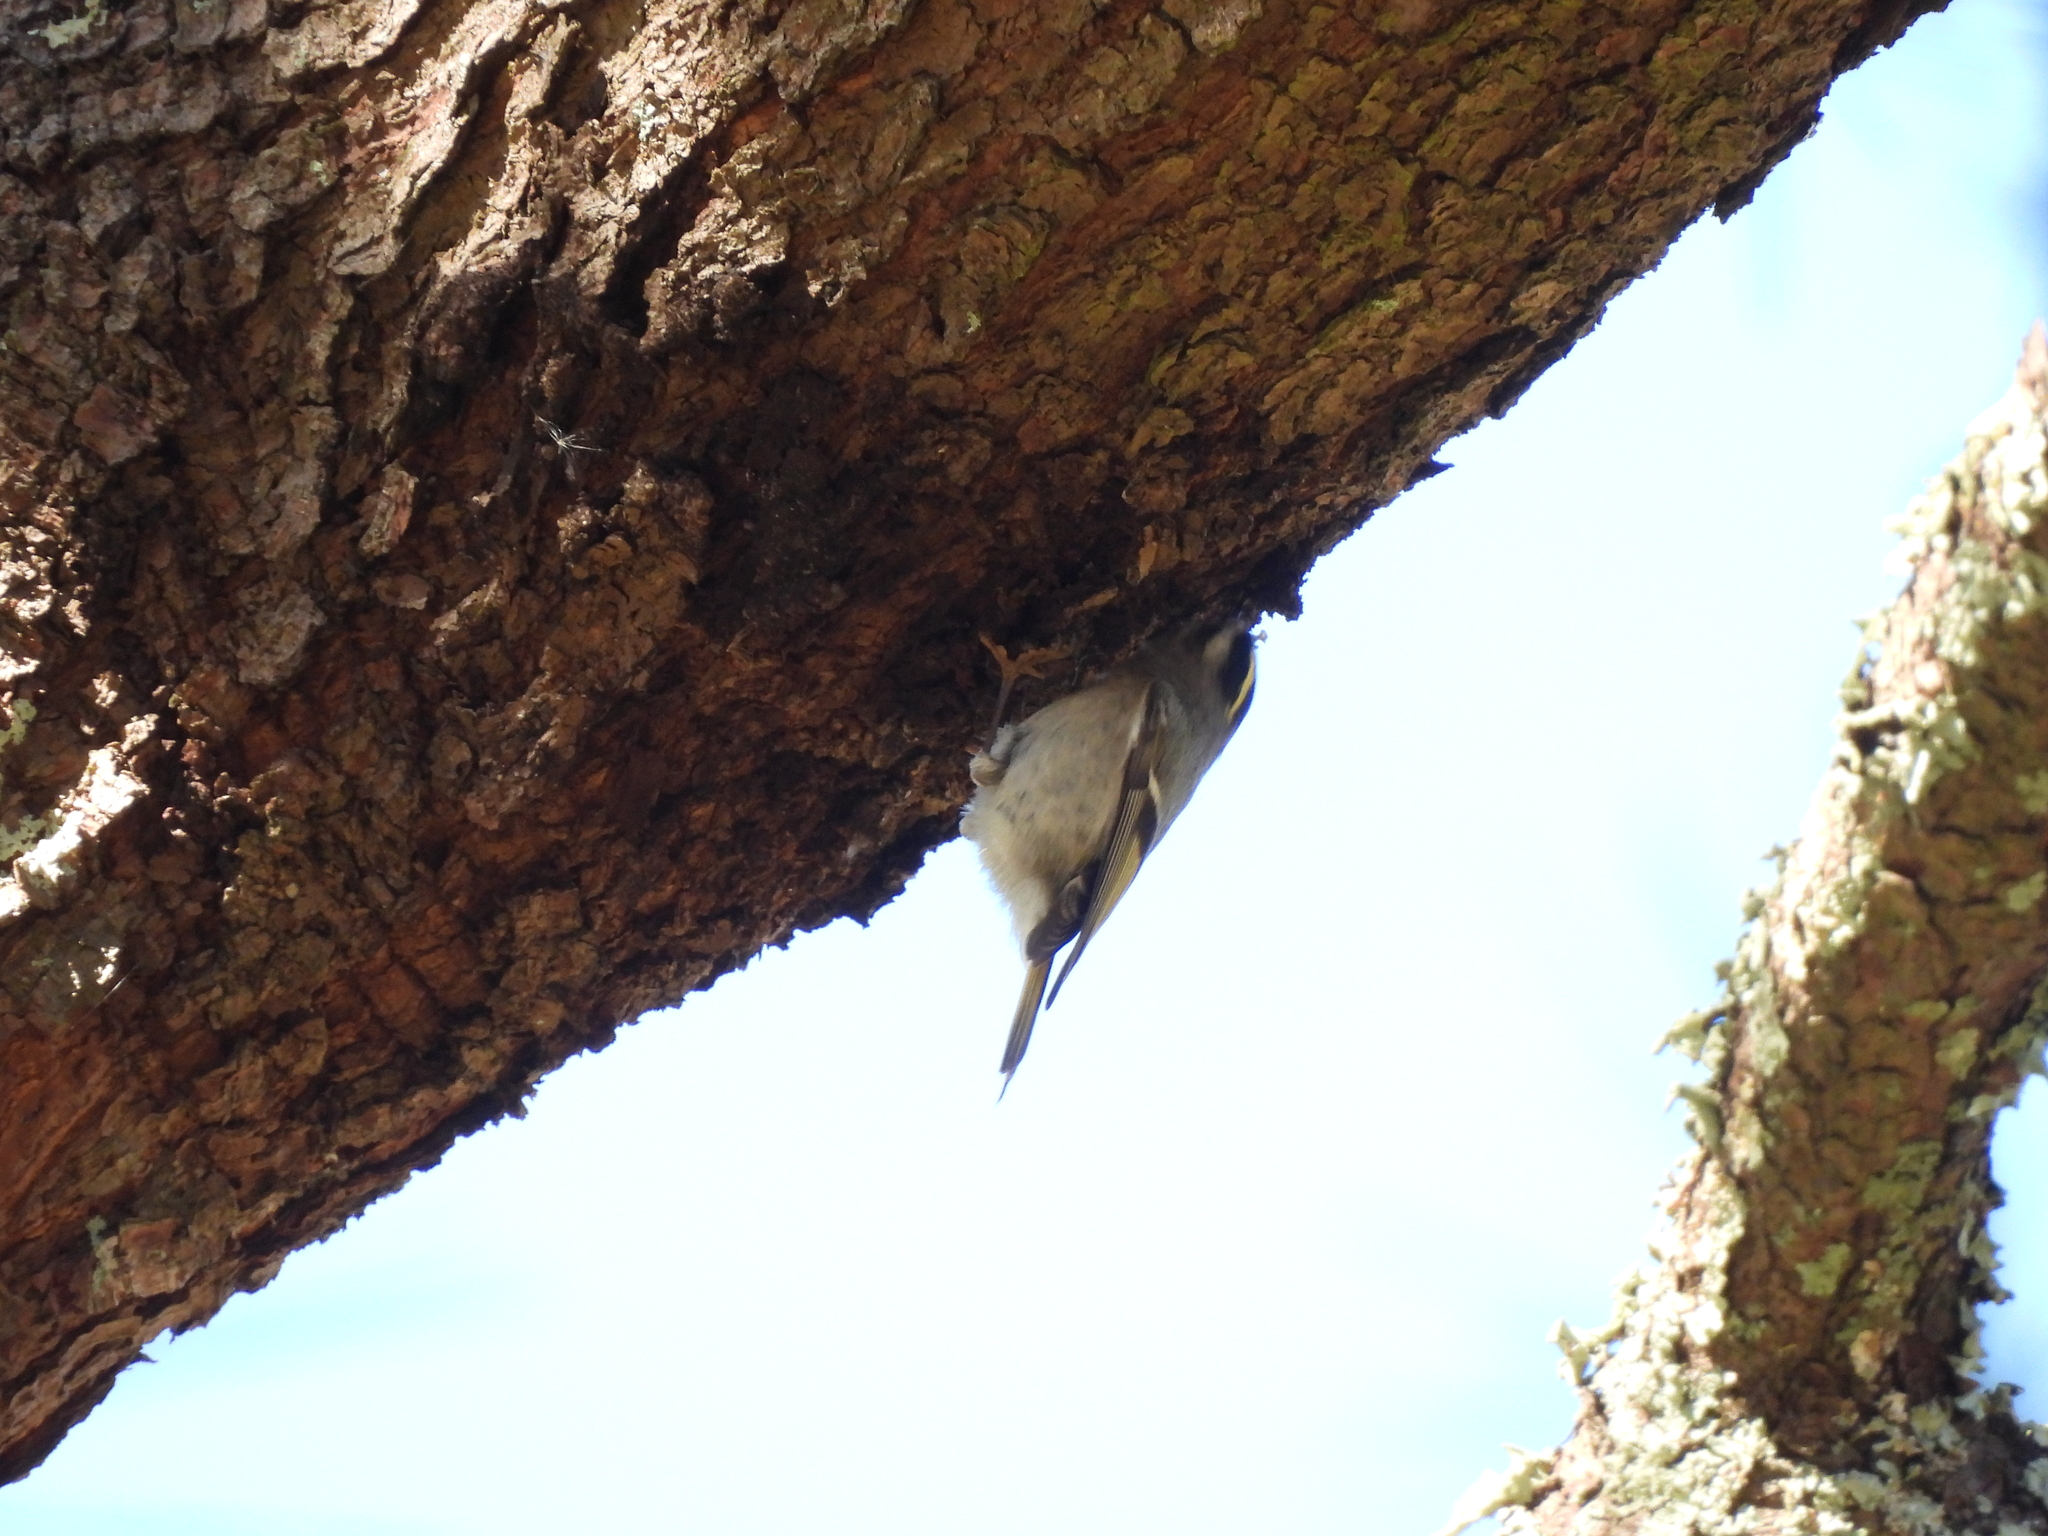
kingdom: Animalia
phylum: Chordata
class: Aves
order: Passeriformes
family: Regulidae
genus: Regulus
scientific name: Regulus satrapa
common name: Golden-crowned kinglet
